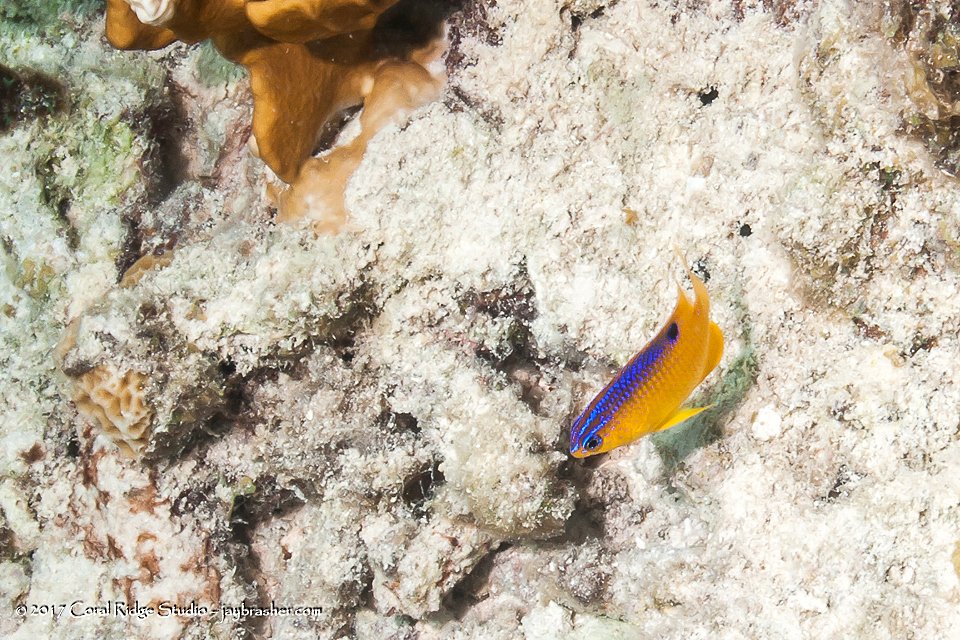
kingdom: Animalia
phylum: Chordata
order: Perciformes
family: Pomacentridae
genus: Stegastes
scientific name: Stegastes diencaeus
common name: Longfin damselfish
